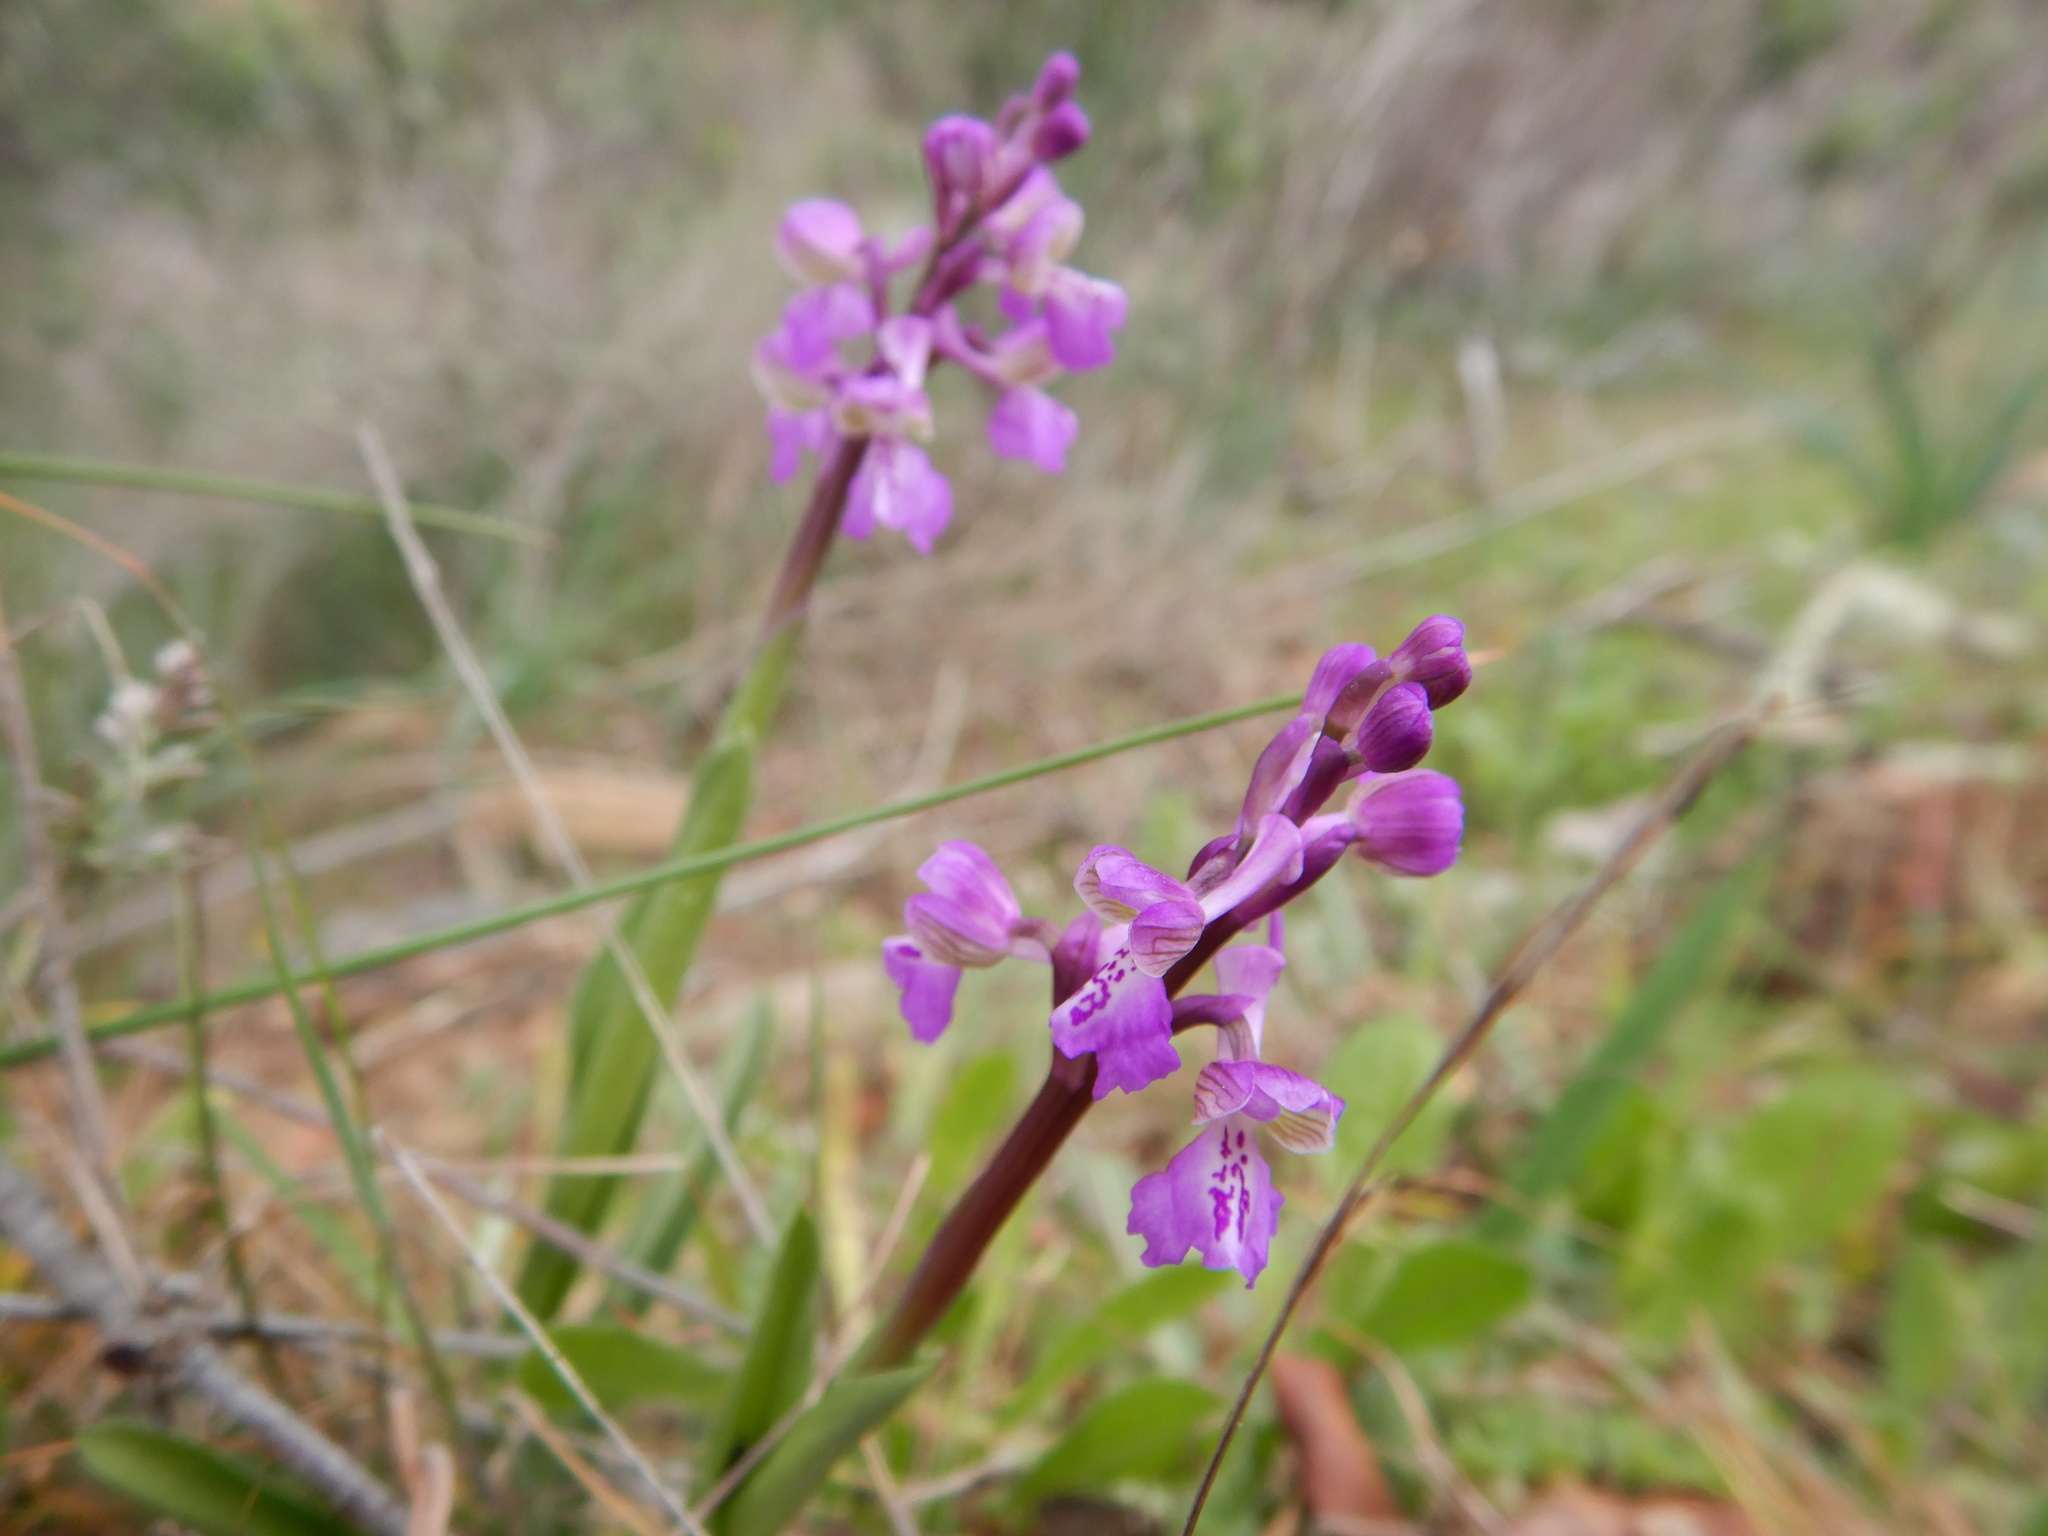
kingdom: Plantae
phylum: Tracheophyta
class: Liliopsida
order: Asparagales
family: Orchidaceae
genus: Anacamptis
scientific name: Anacamptis morio
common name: Green-winged orchid
